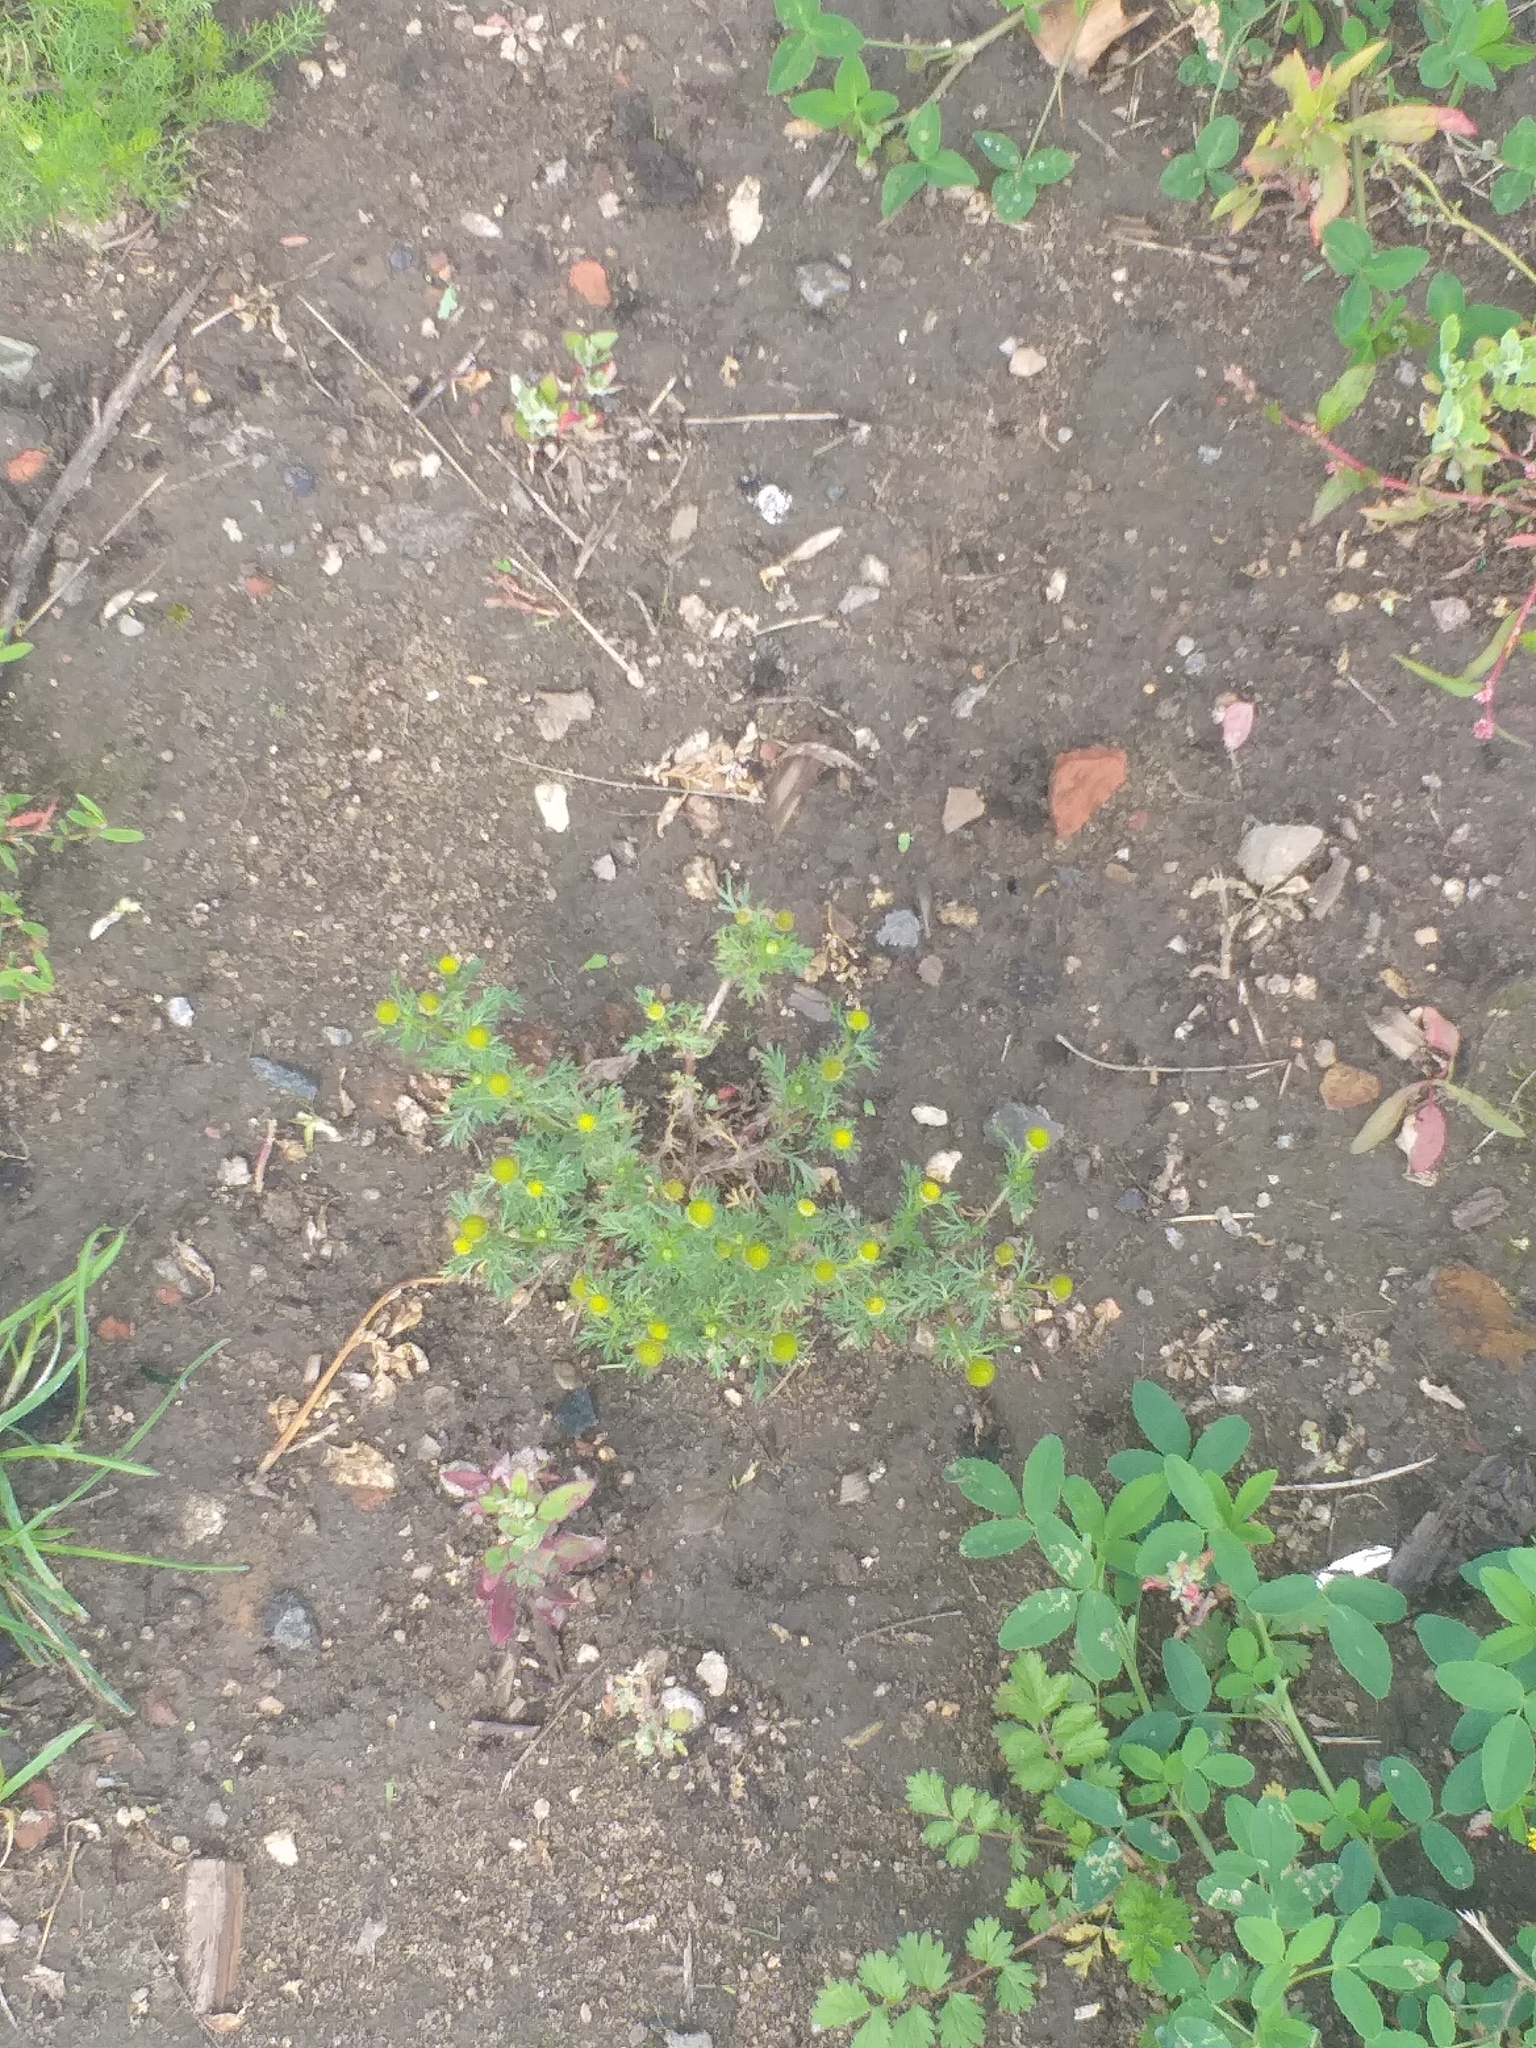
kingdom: Plantae
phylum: Tracheophyta
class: Magnoliopsida
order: Asterales
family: Asteraceae
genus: Matricaria
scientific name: Matricaria discoidea
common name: Disc mayweed
